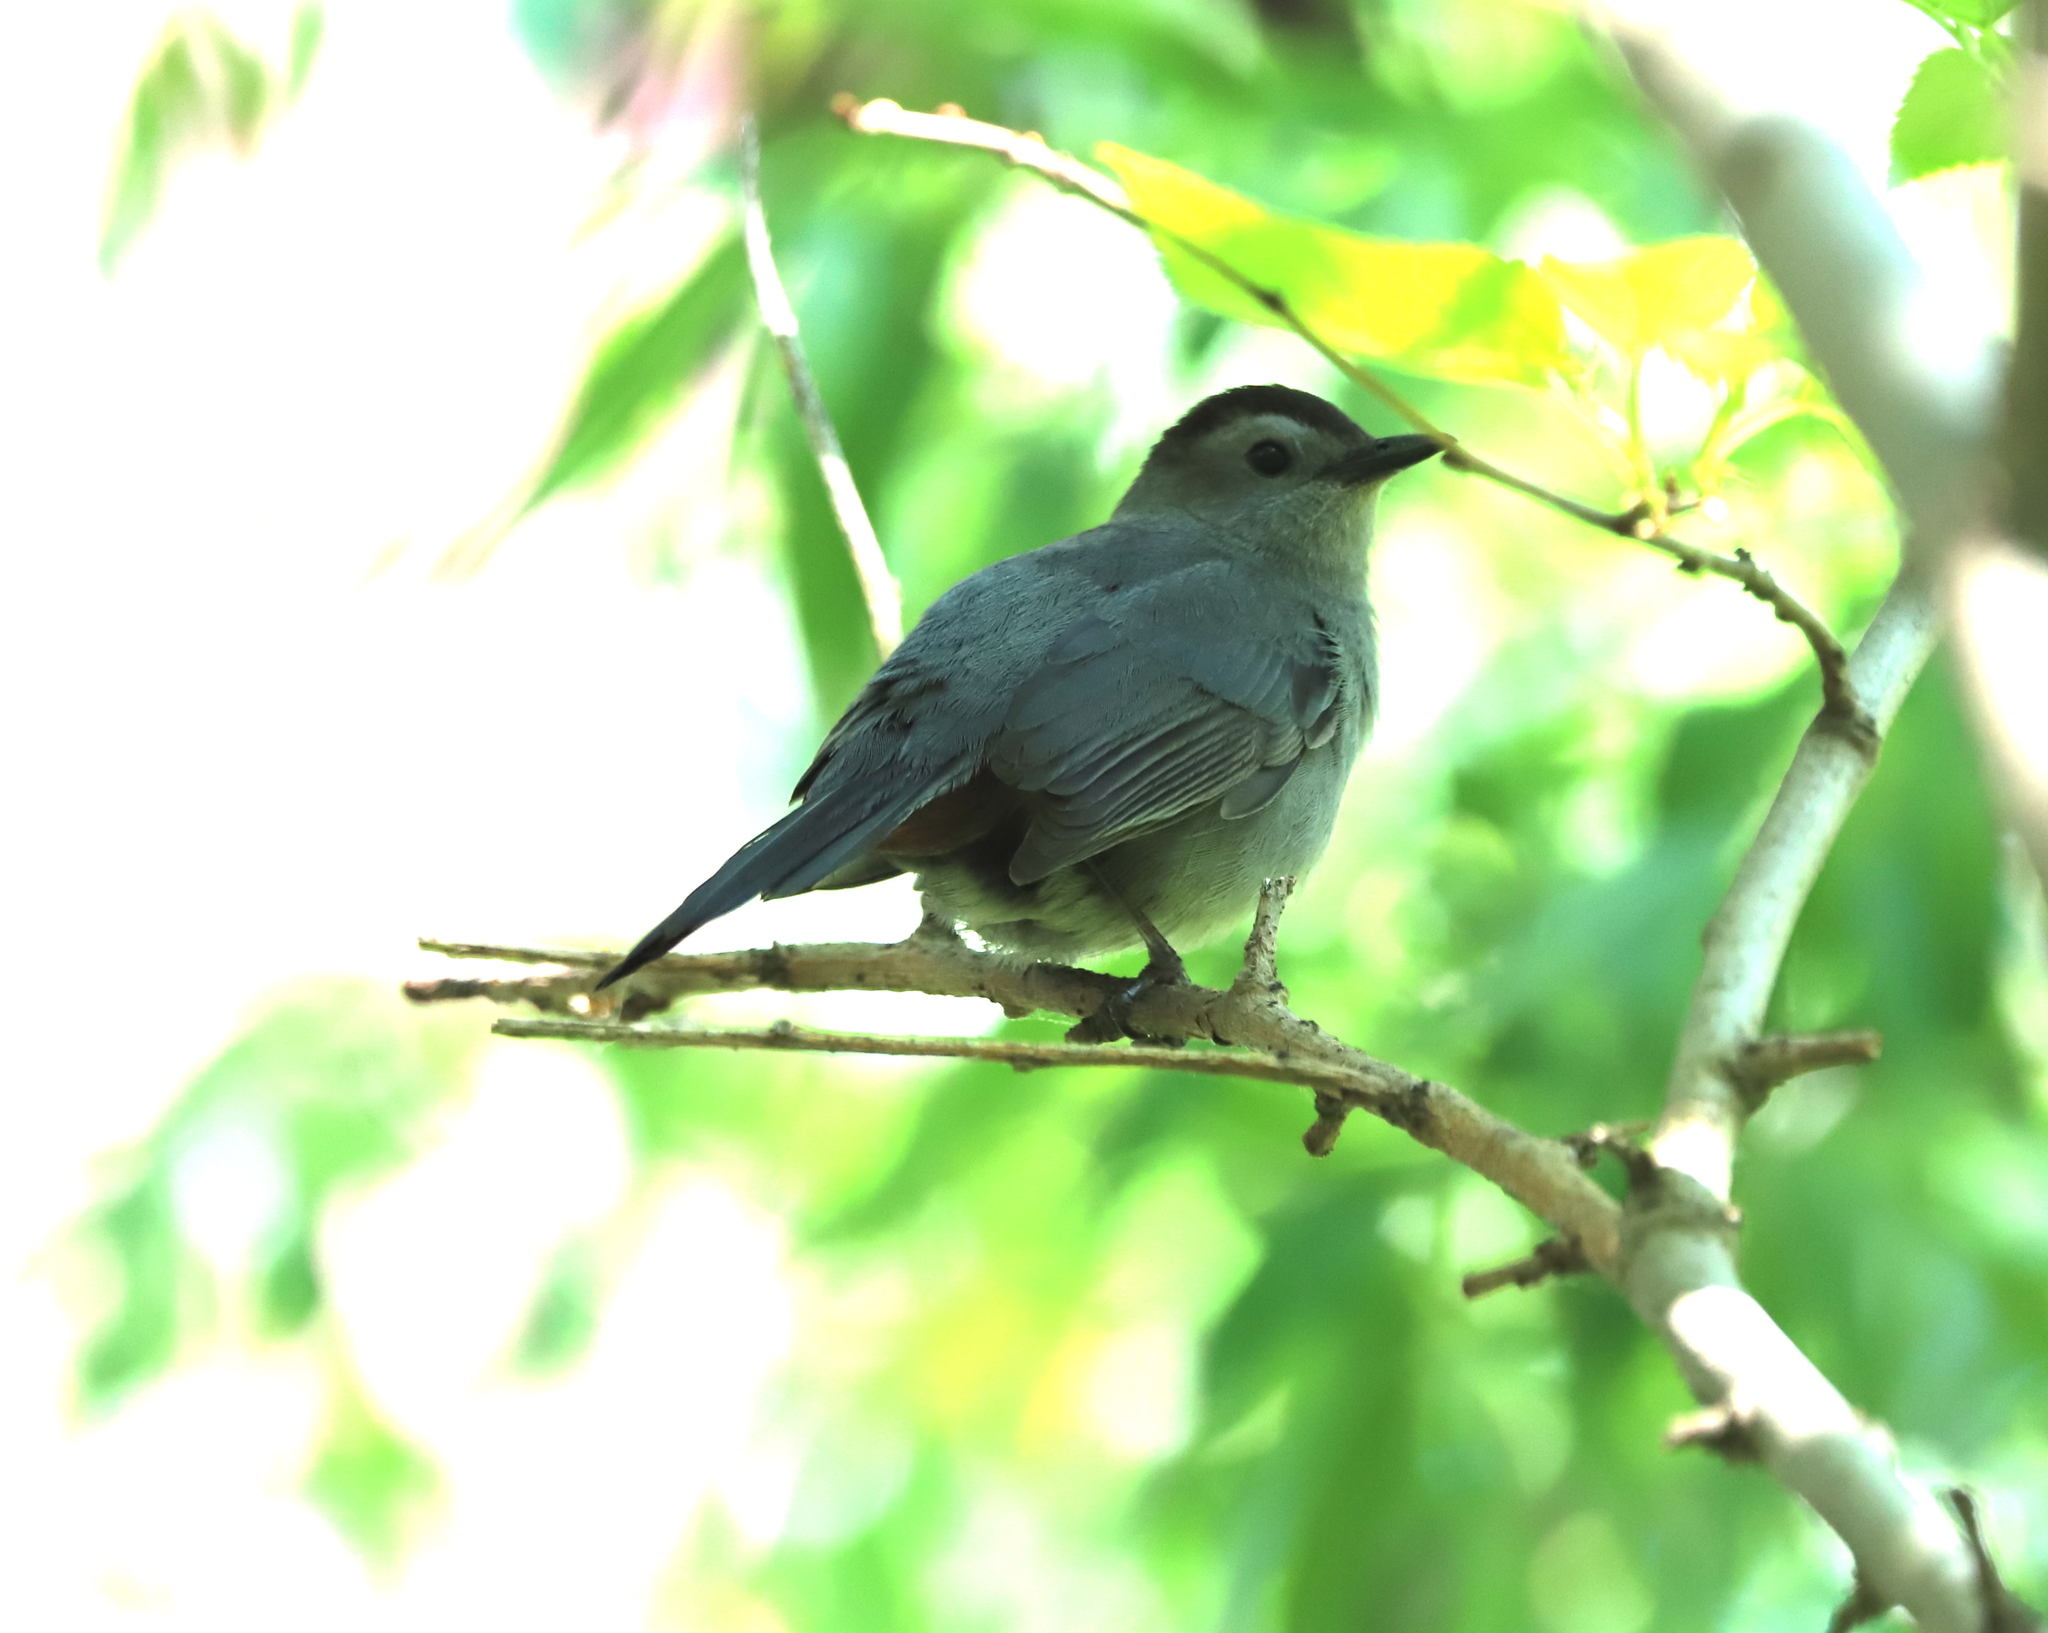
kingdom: Animalia
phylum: Chordata
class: Aves
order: Passeriformes
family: Mimidae
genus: Dumetella
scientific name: Dumetella carolinensis
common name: Gray catbird
